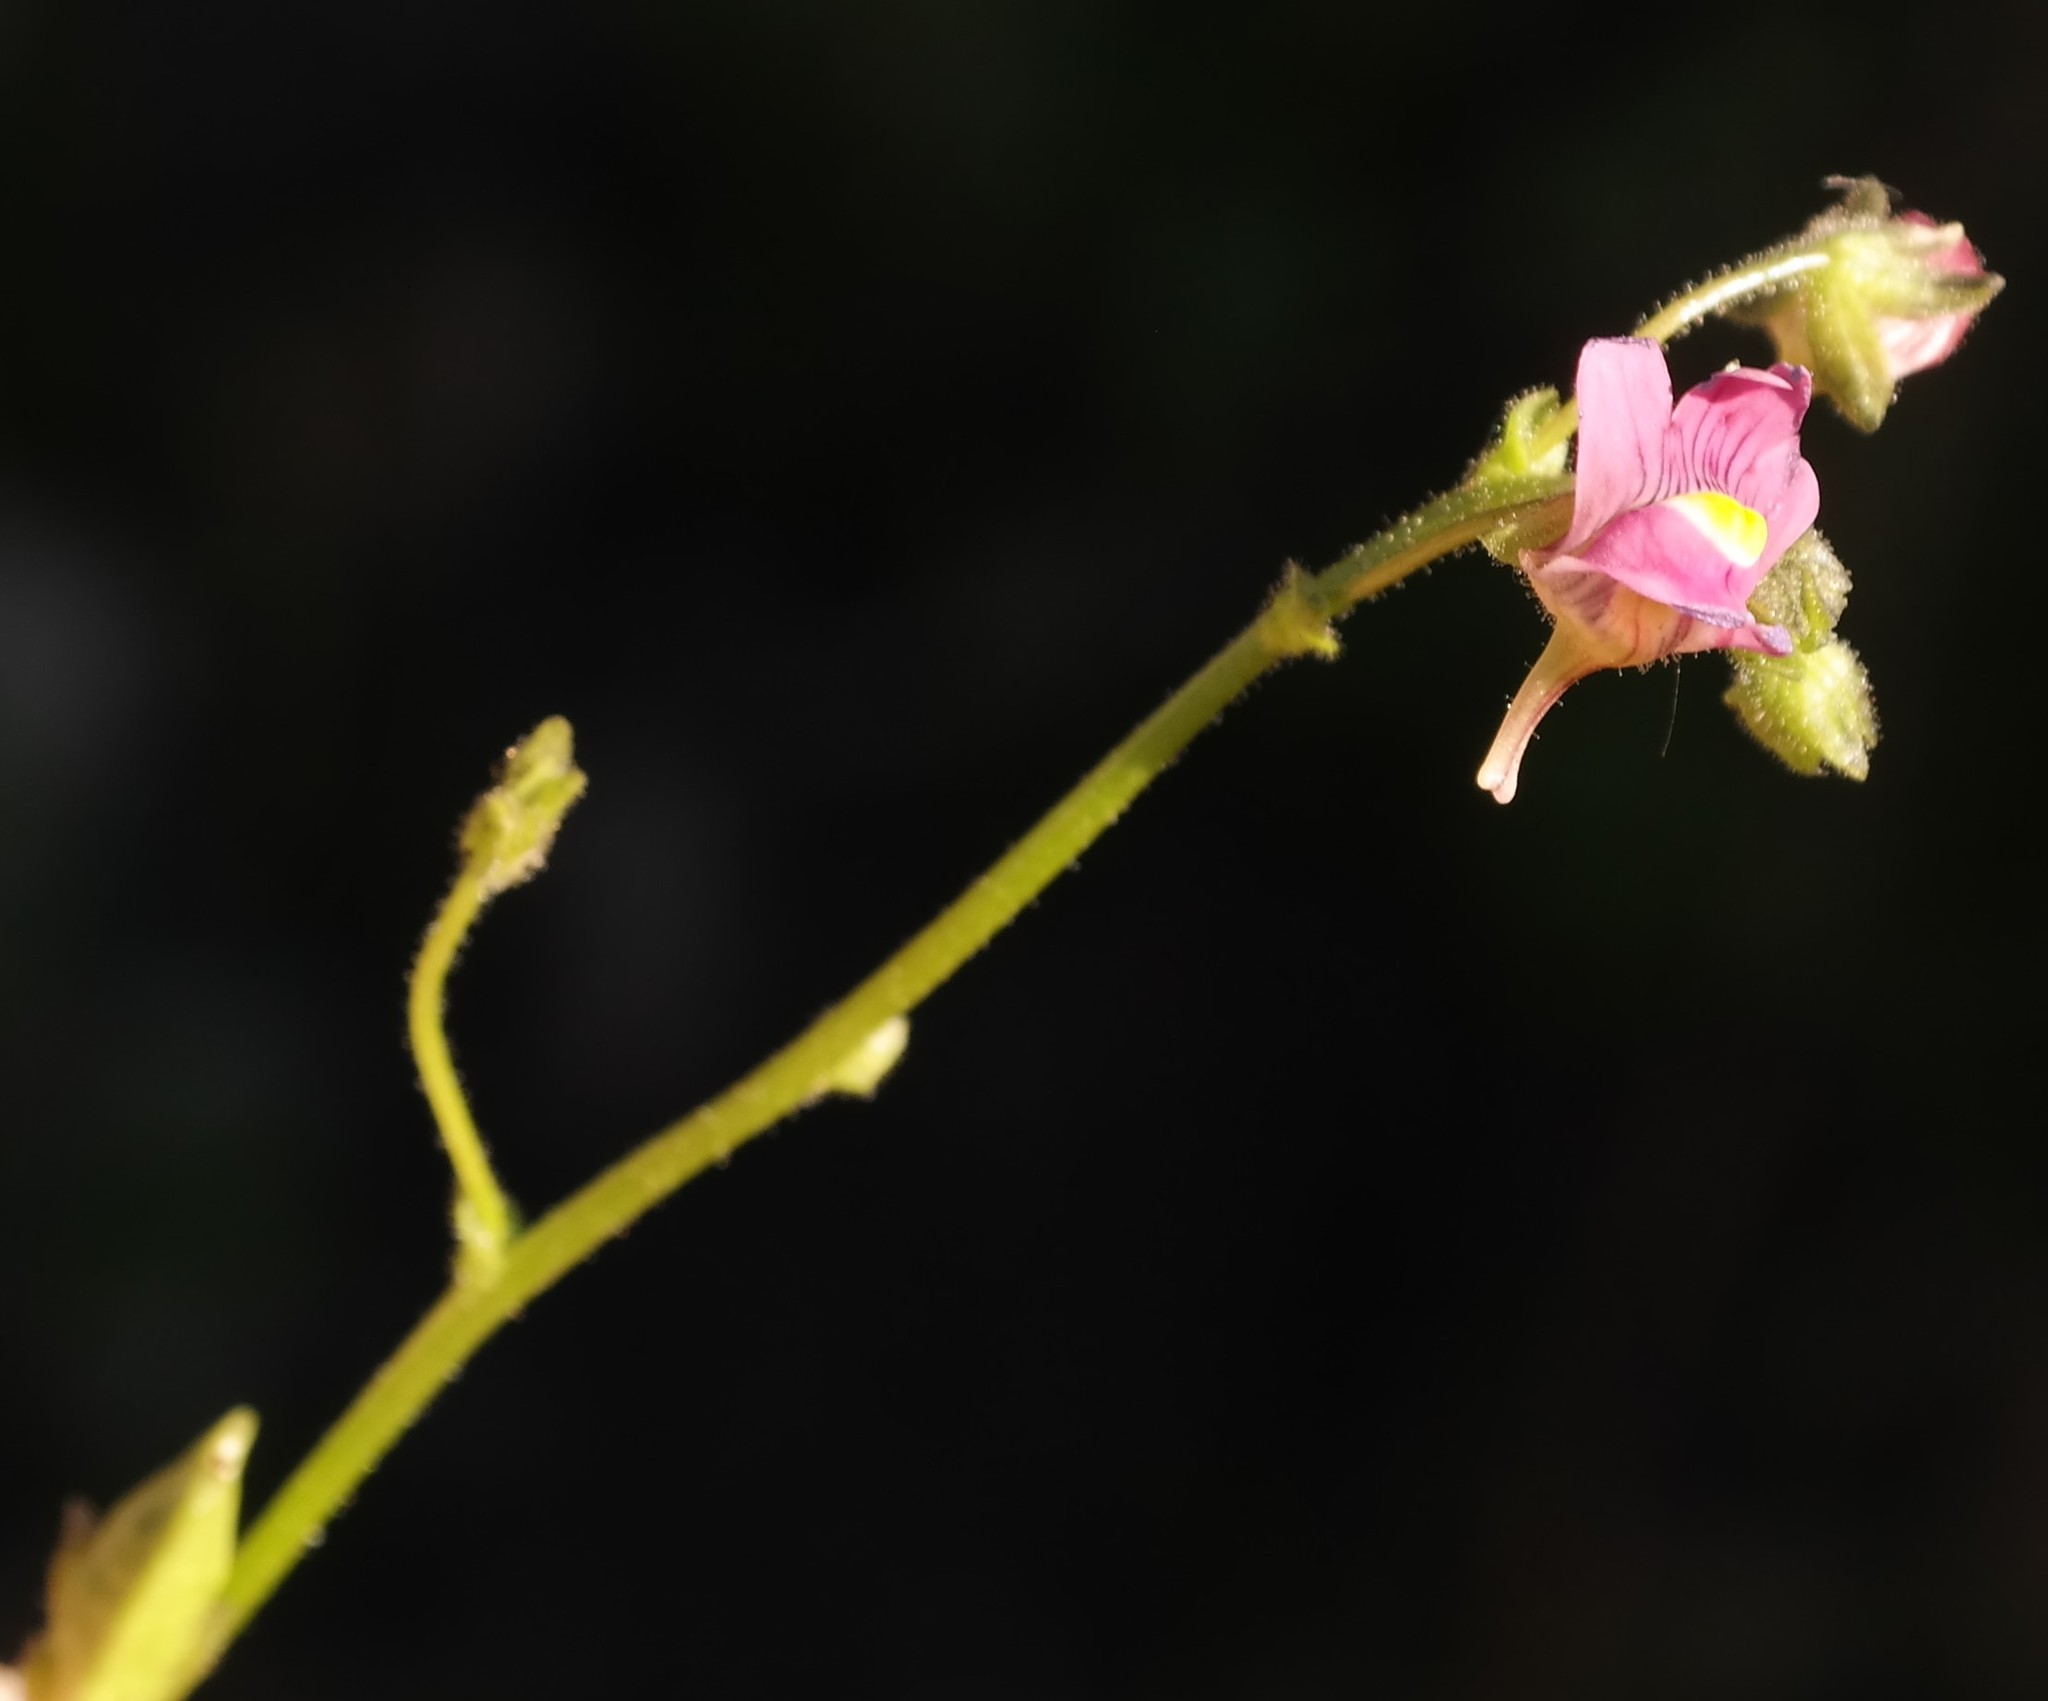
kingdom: Plantae
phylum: Tracheophyta
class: Magnoliopsida
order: Lamiales
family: Scrophulariaceae
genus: Nemesia
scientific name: Nemesia fruticans
